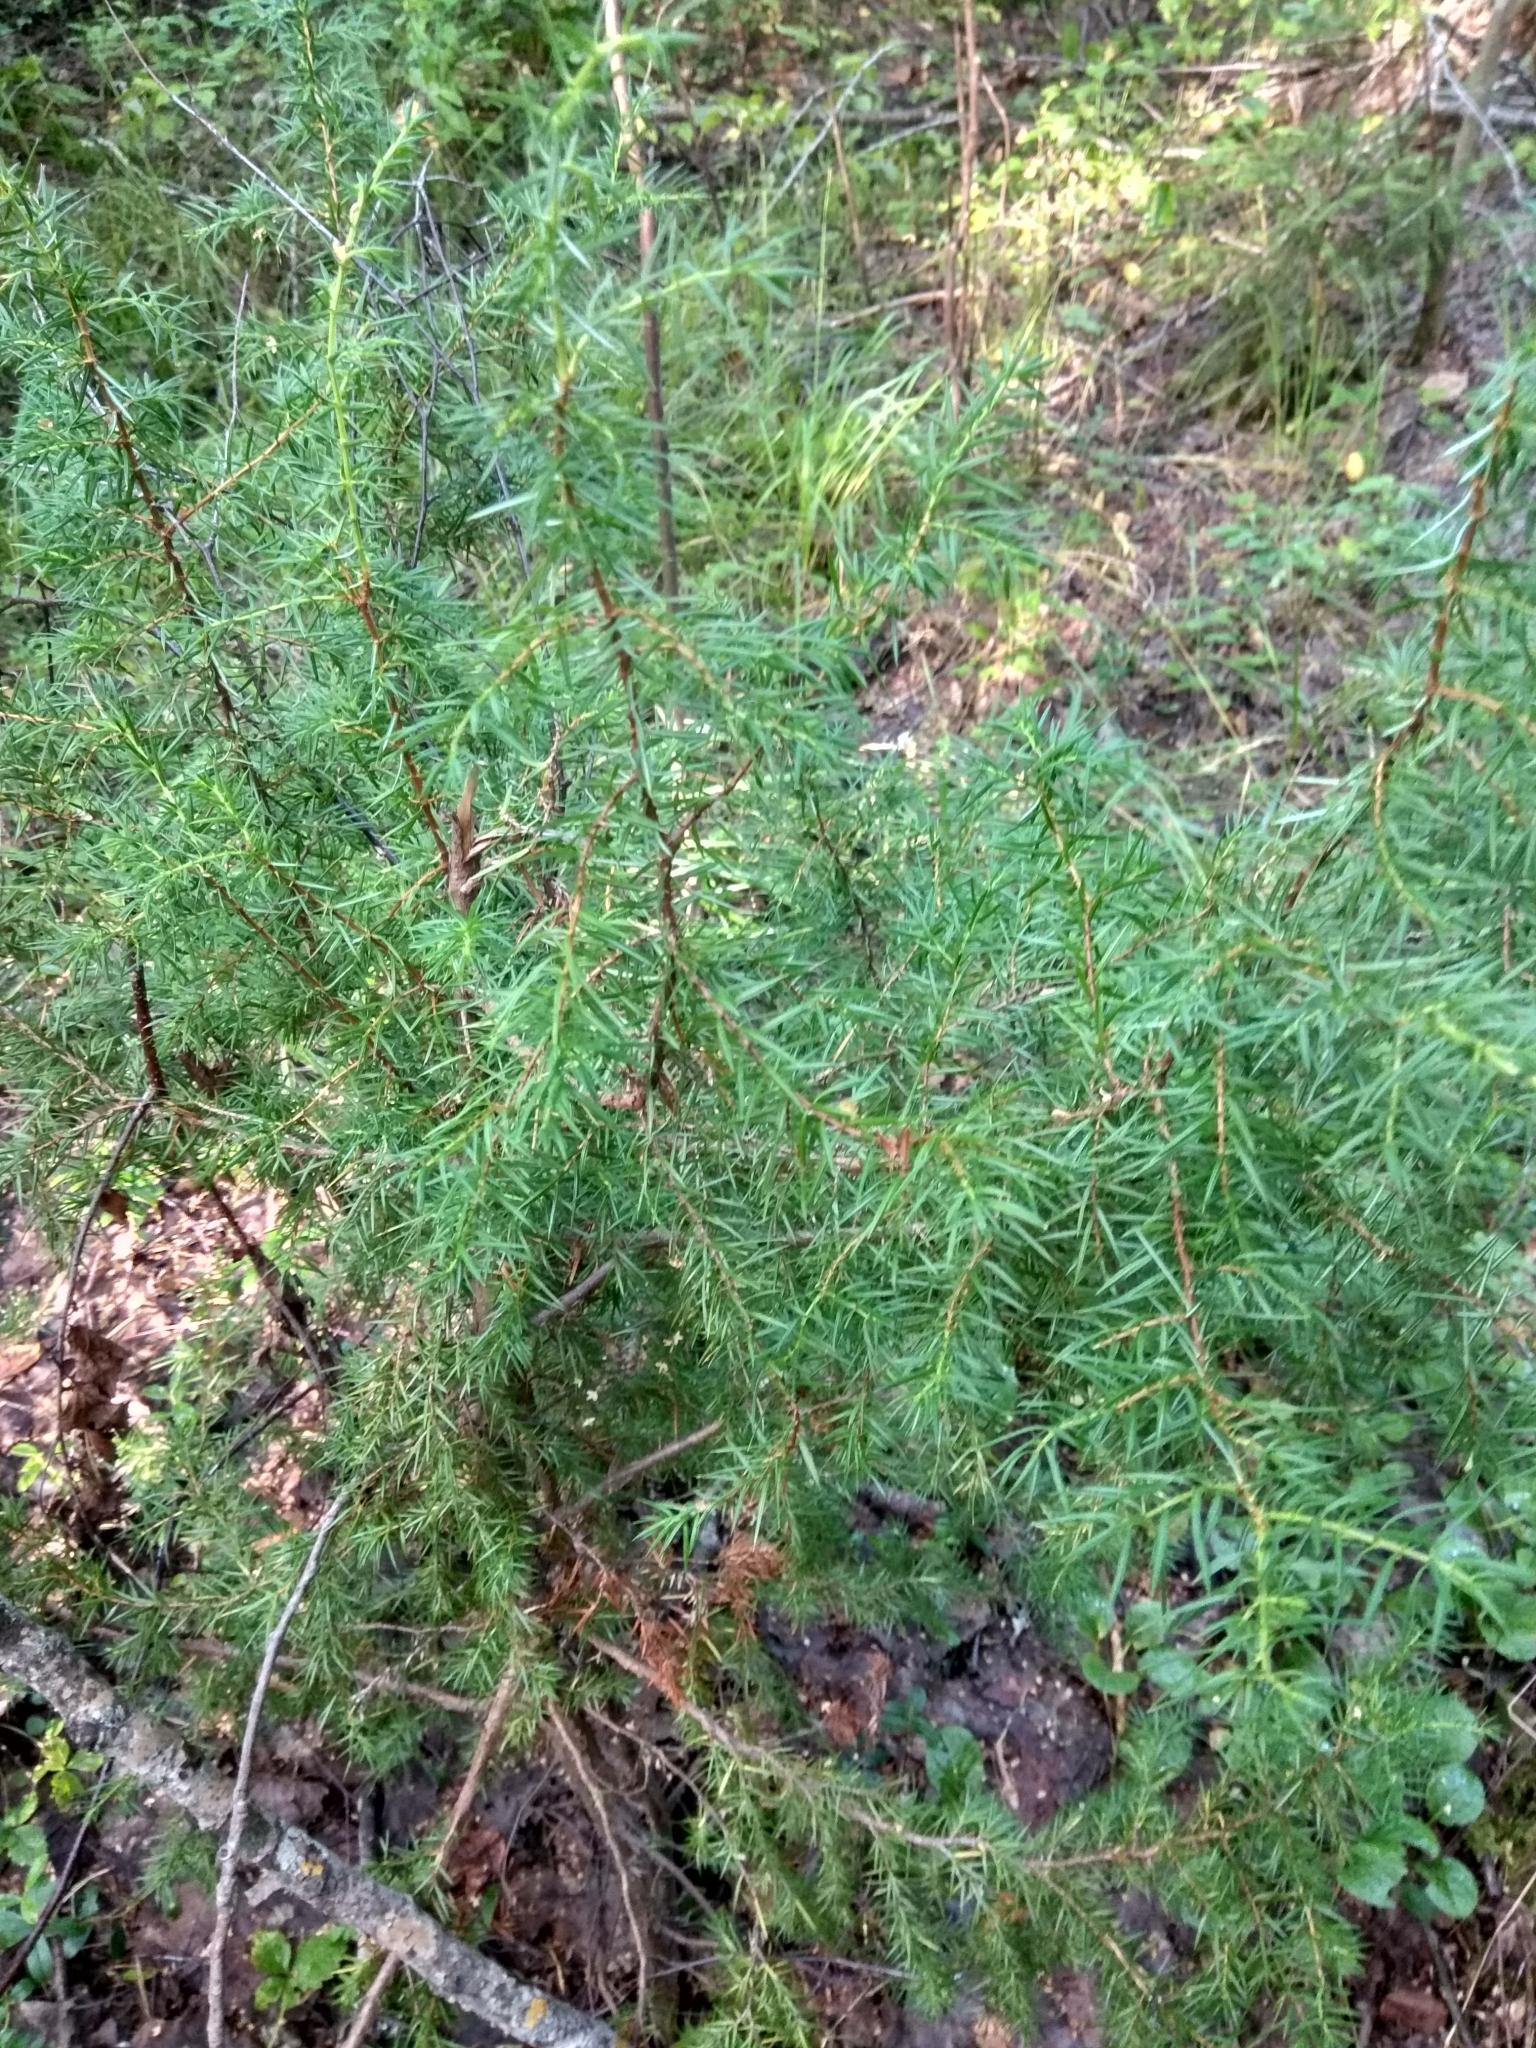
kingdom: Plantae
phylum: Tracheophyta
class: Pinopsida
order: Pinales
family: Cupressaceae
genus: Juniperus
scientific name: Juniperus communis
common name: Common juniper
